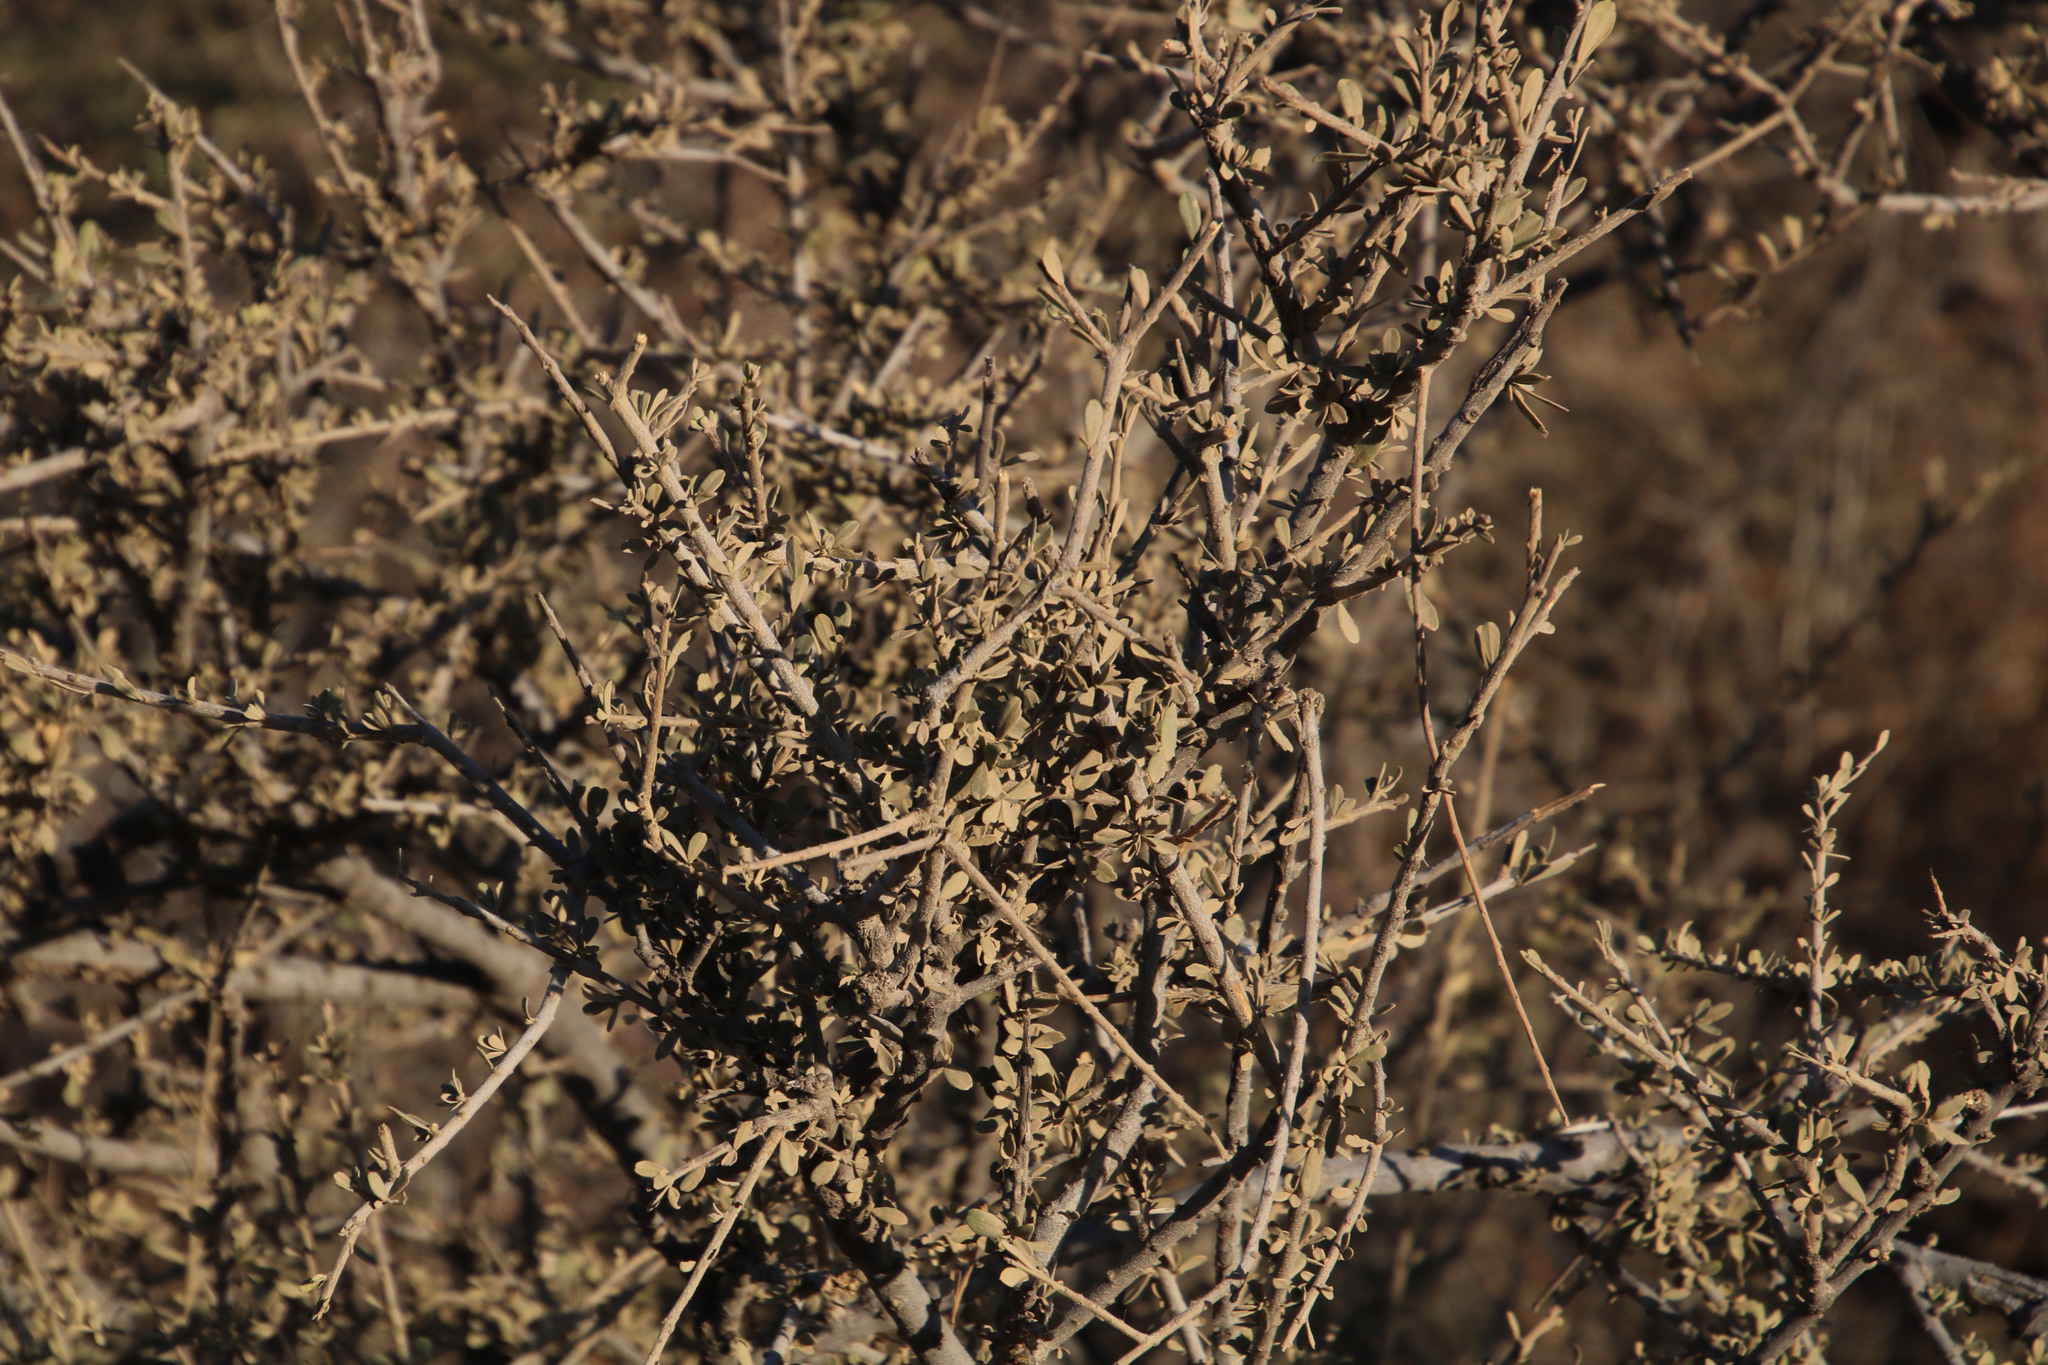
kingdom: Plantae
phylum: Tracheophyta
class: Magnoliopsida
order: Brassicales
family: Capparaceae
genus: Maerua
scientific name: Maerua parvifolia
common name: Dwarf bush-cherry
